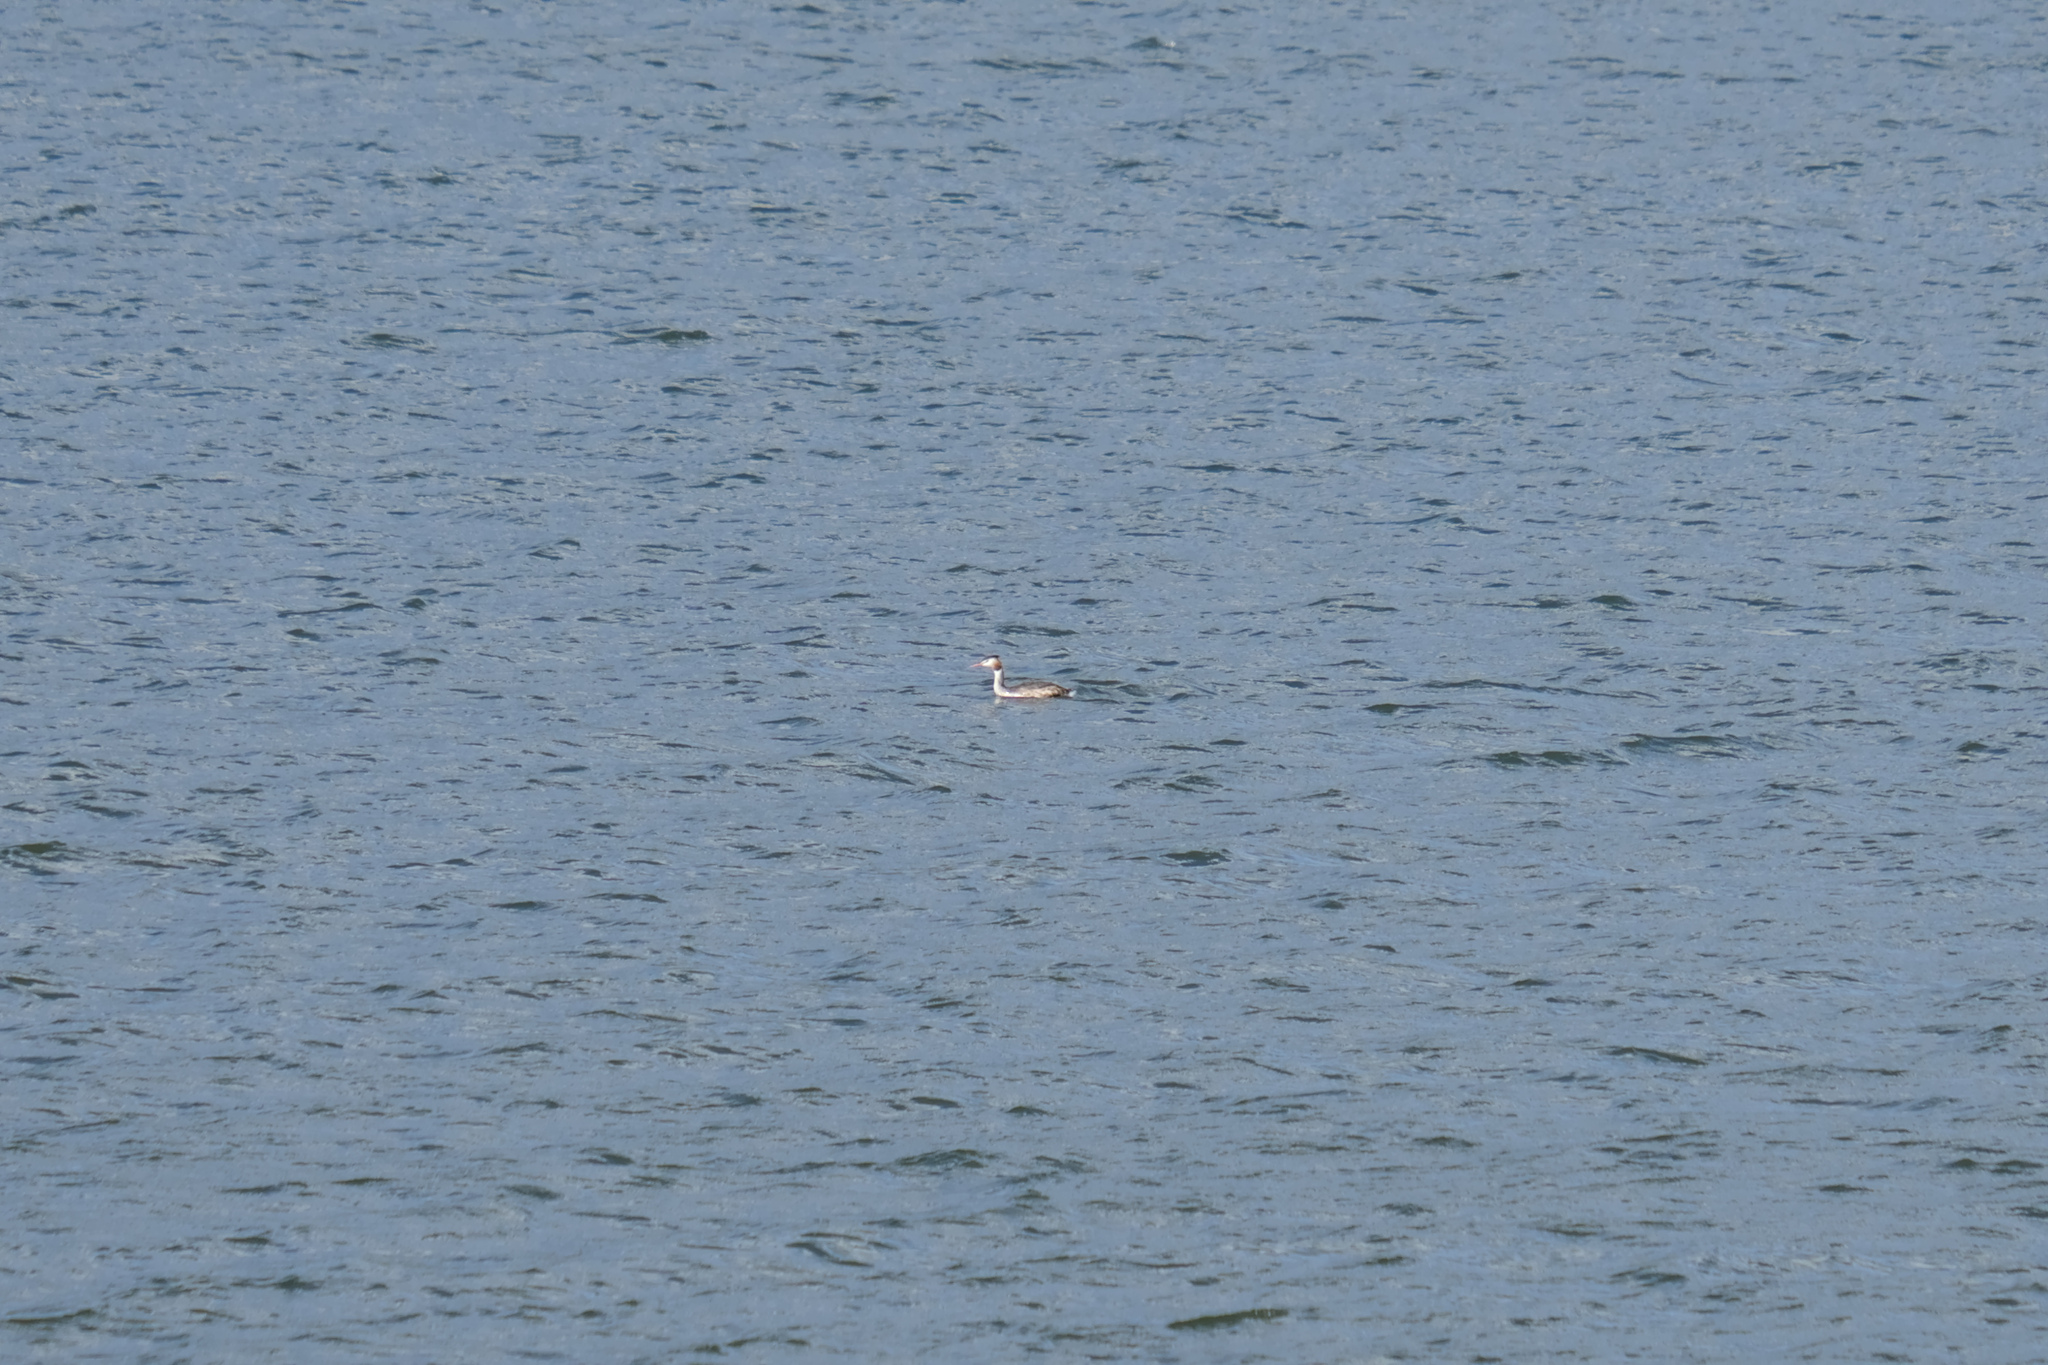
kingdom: Animalia
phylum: Chordata
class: Aves
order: Podicipediformes
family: Podicipedidae
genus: Podiceps
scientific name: Podiceps cristatus
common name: Great crested grebe
